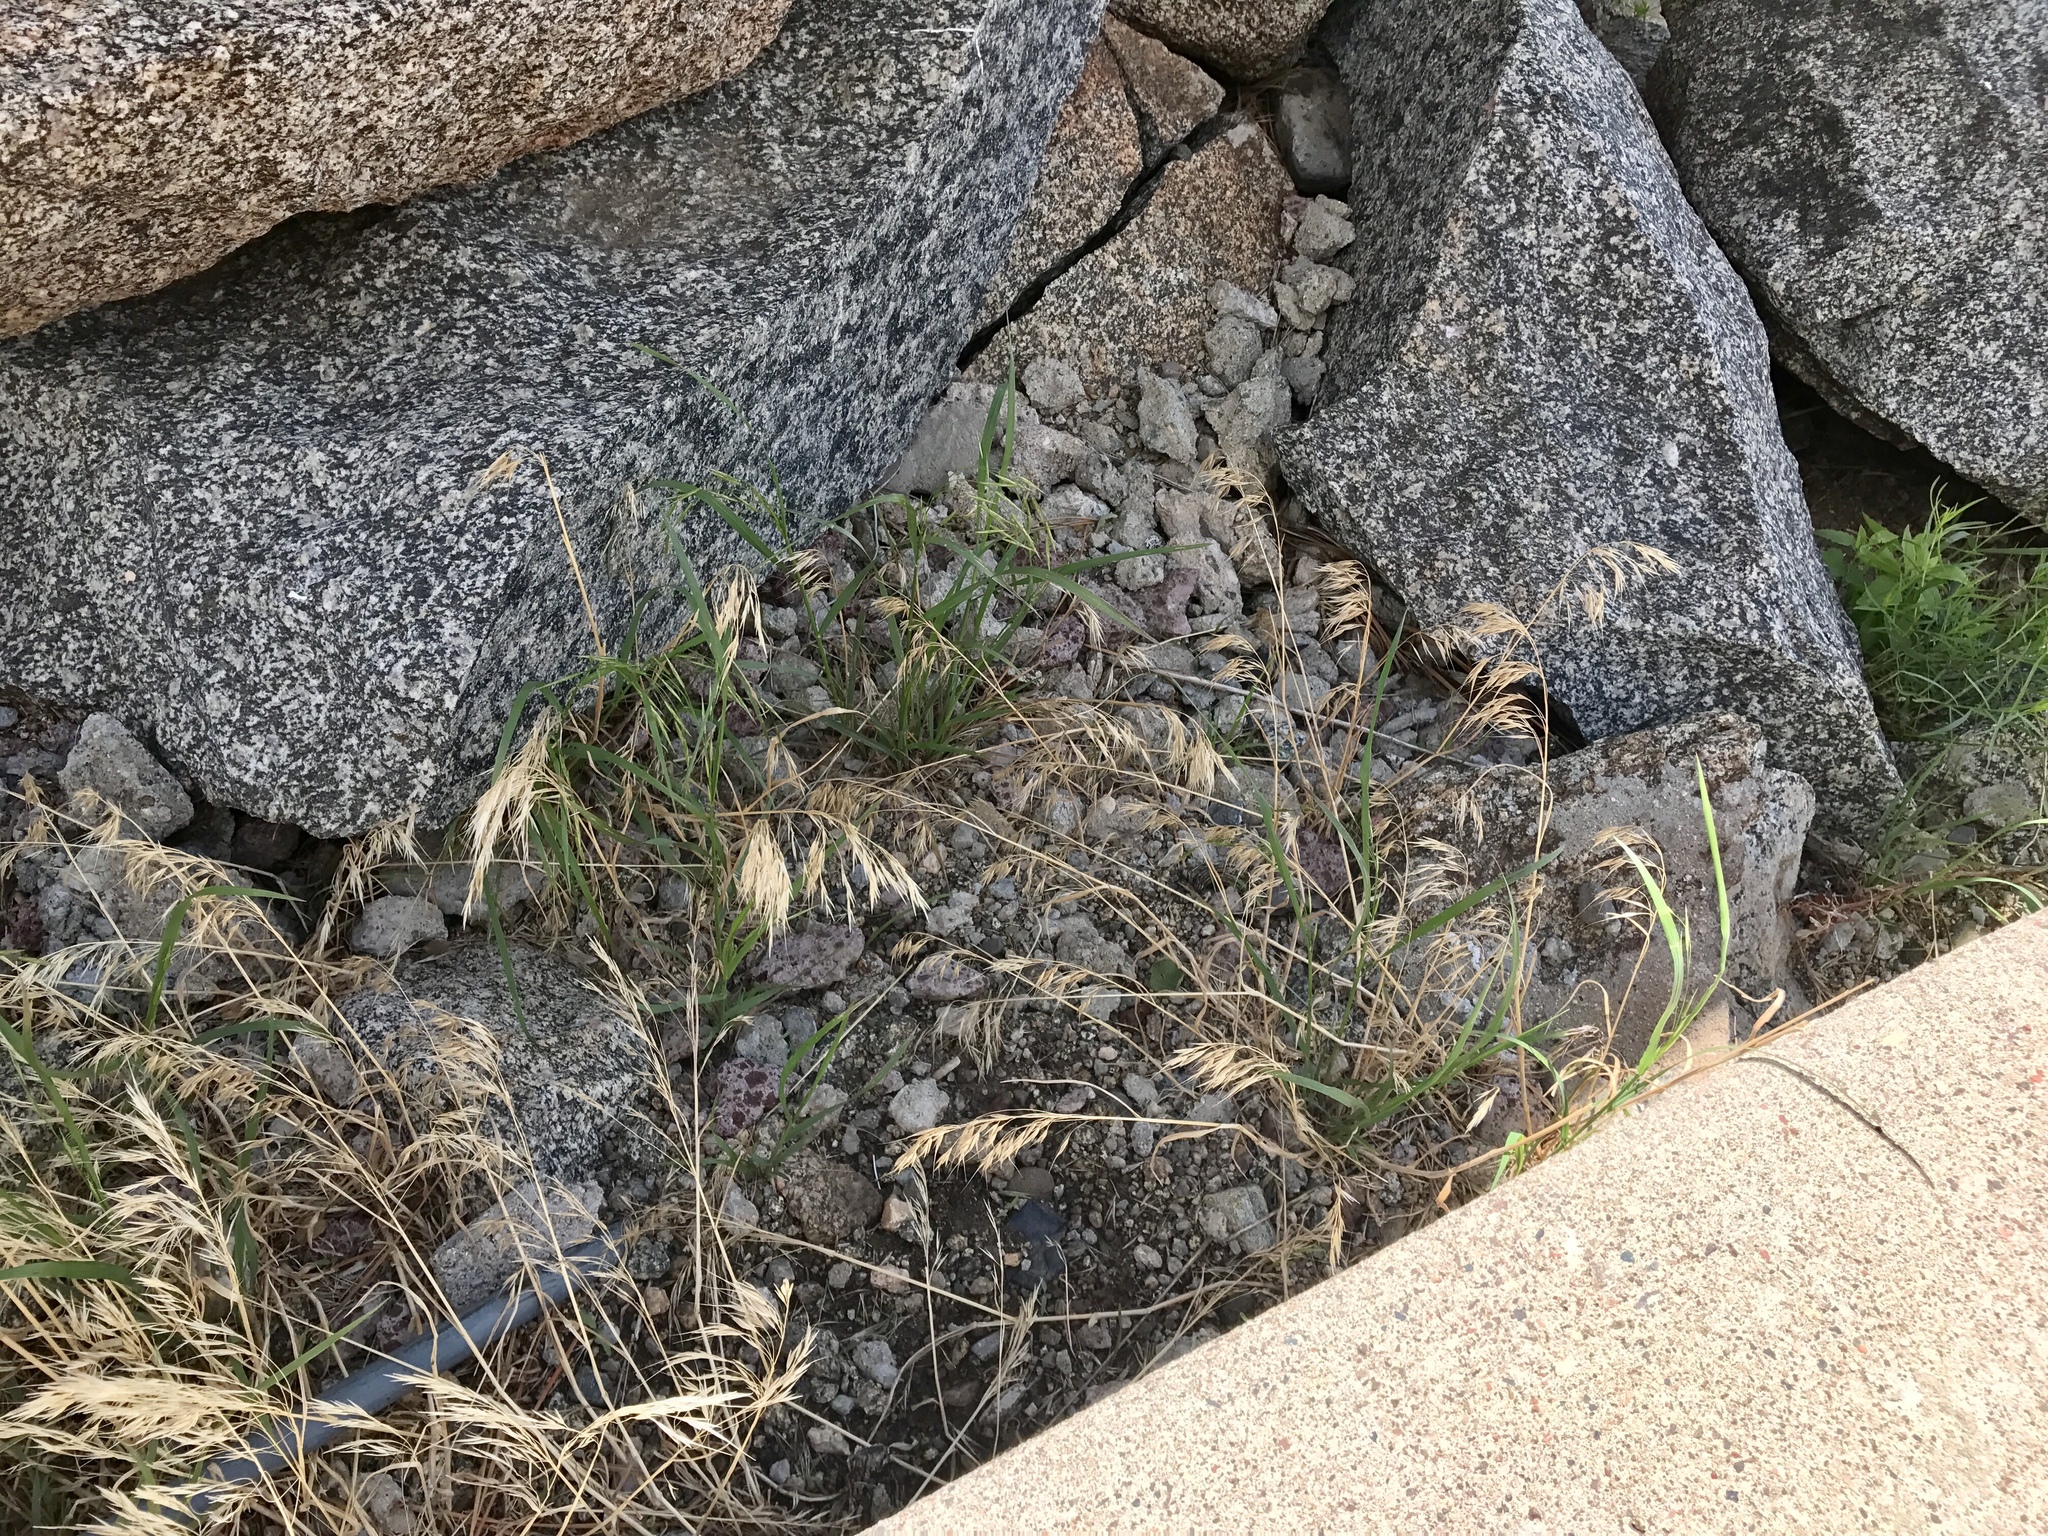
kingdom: Plantae
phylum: Tracheophyta
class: Liliopsida
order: Poales
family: Poaceae
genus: Bromus
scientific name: Bromus tectorum
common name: Cheatgrass
